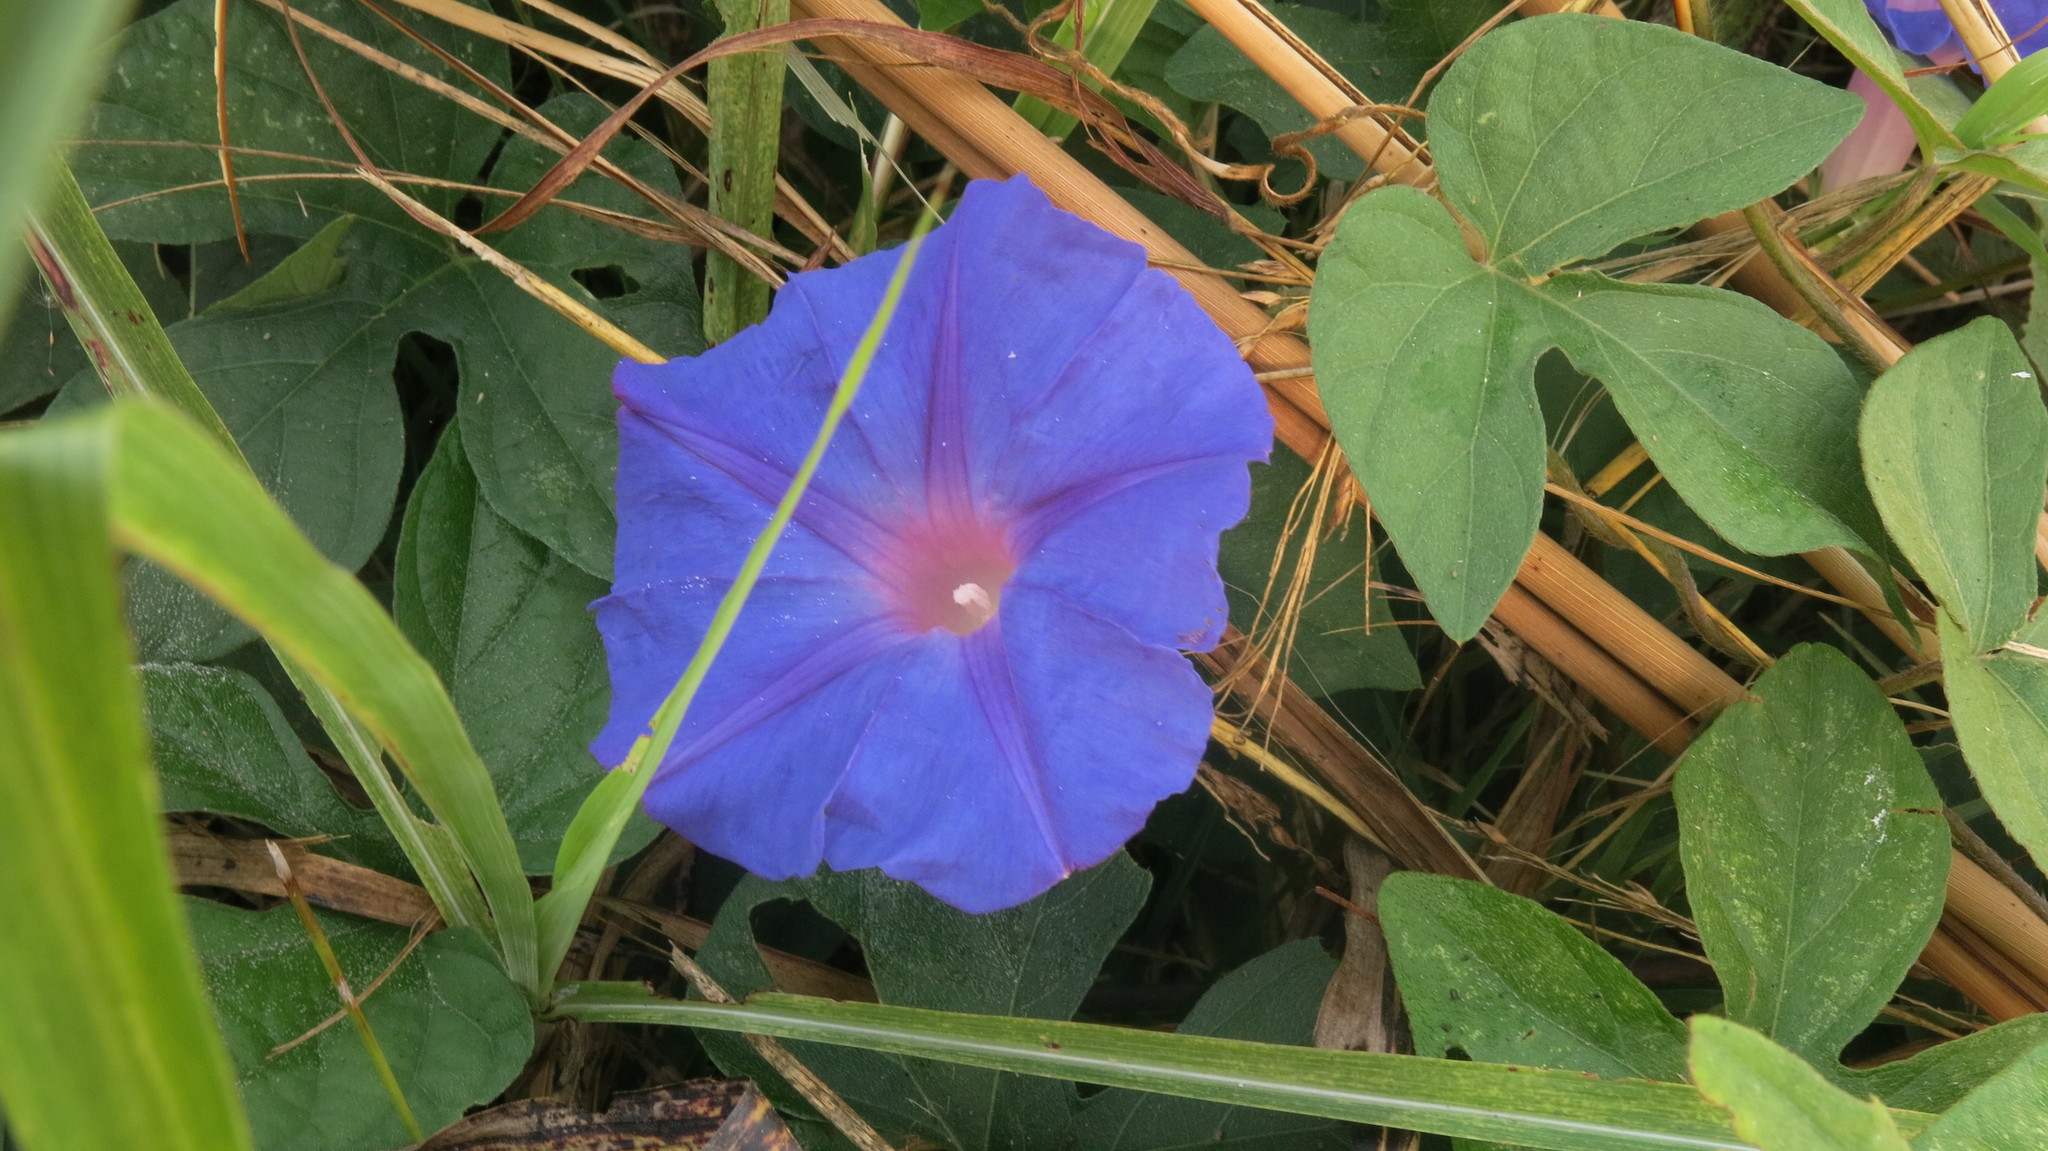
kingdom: Plantae
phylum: Tracheophyta
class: Magnoliopsida
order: Solanales
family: Convolvulaceae
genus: Ipomoea
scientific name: Ipomoea indica
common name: Blue dawnflower
